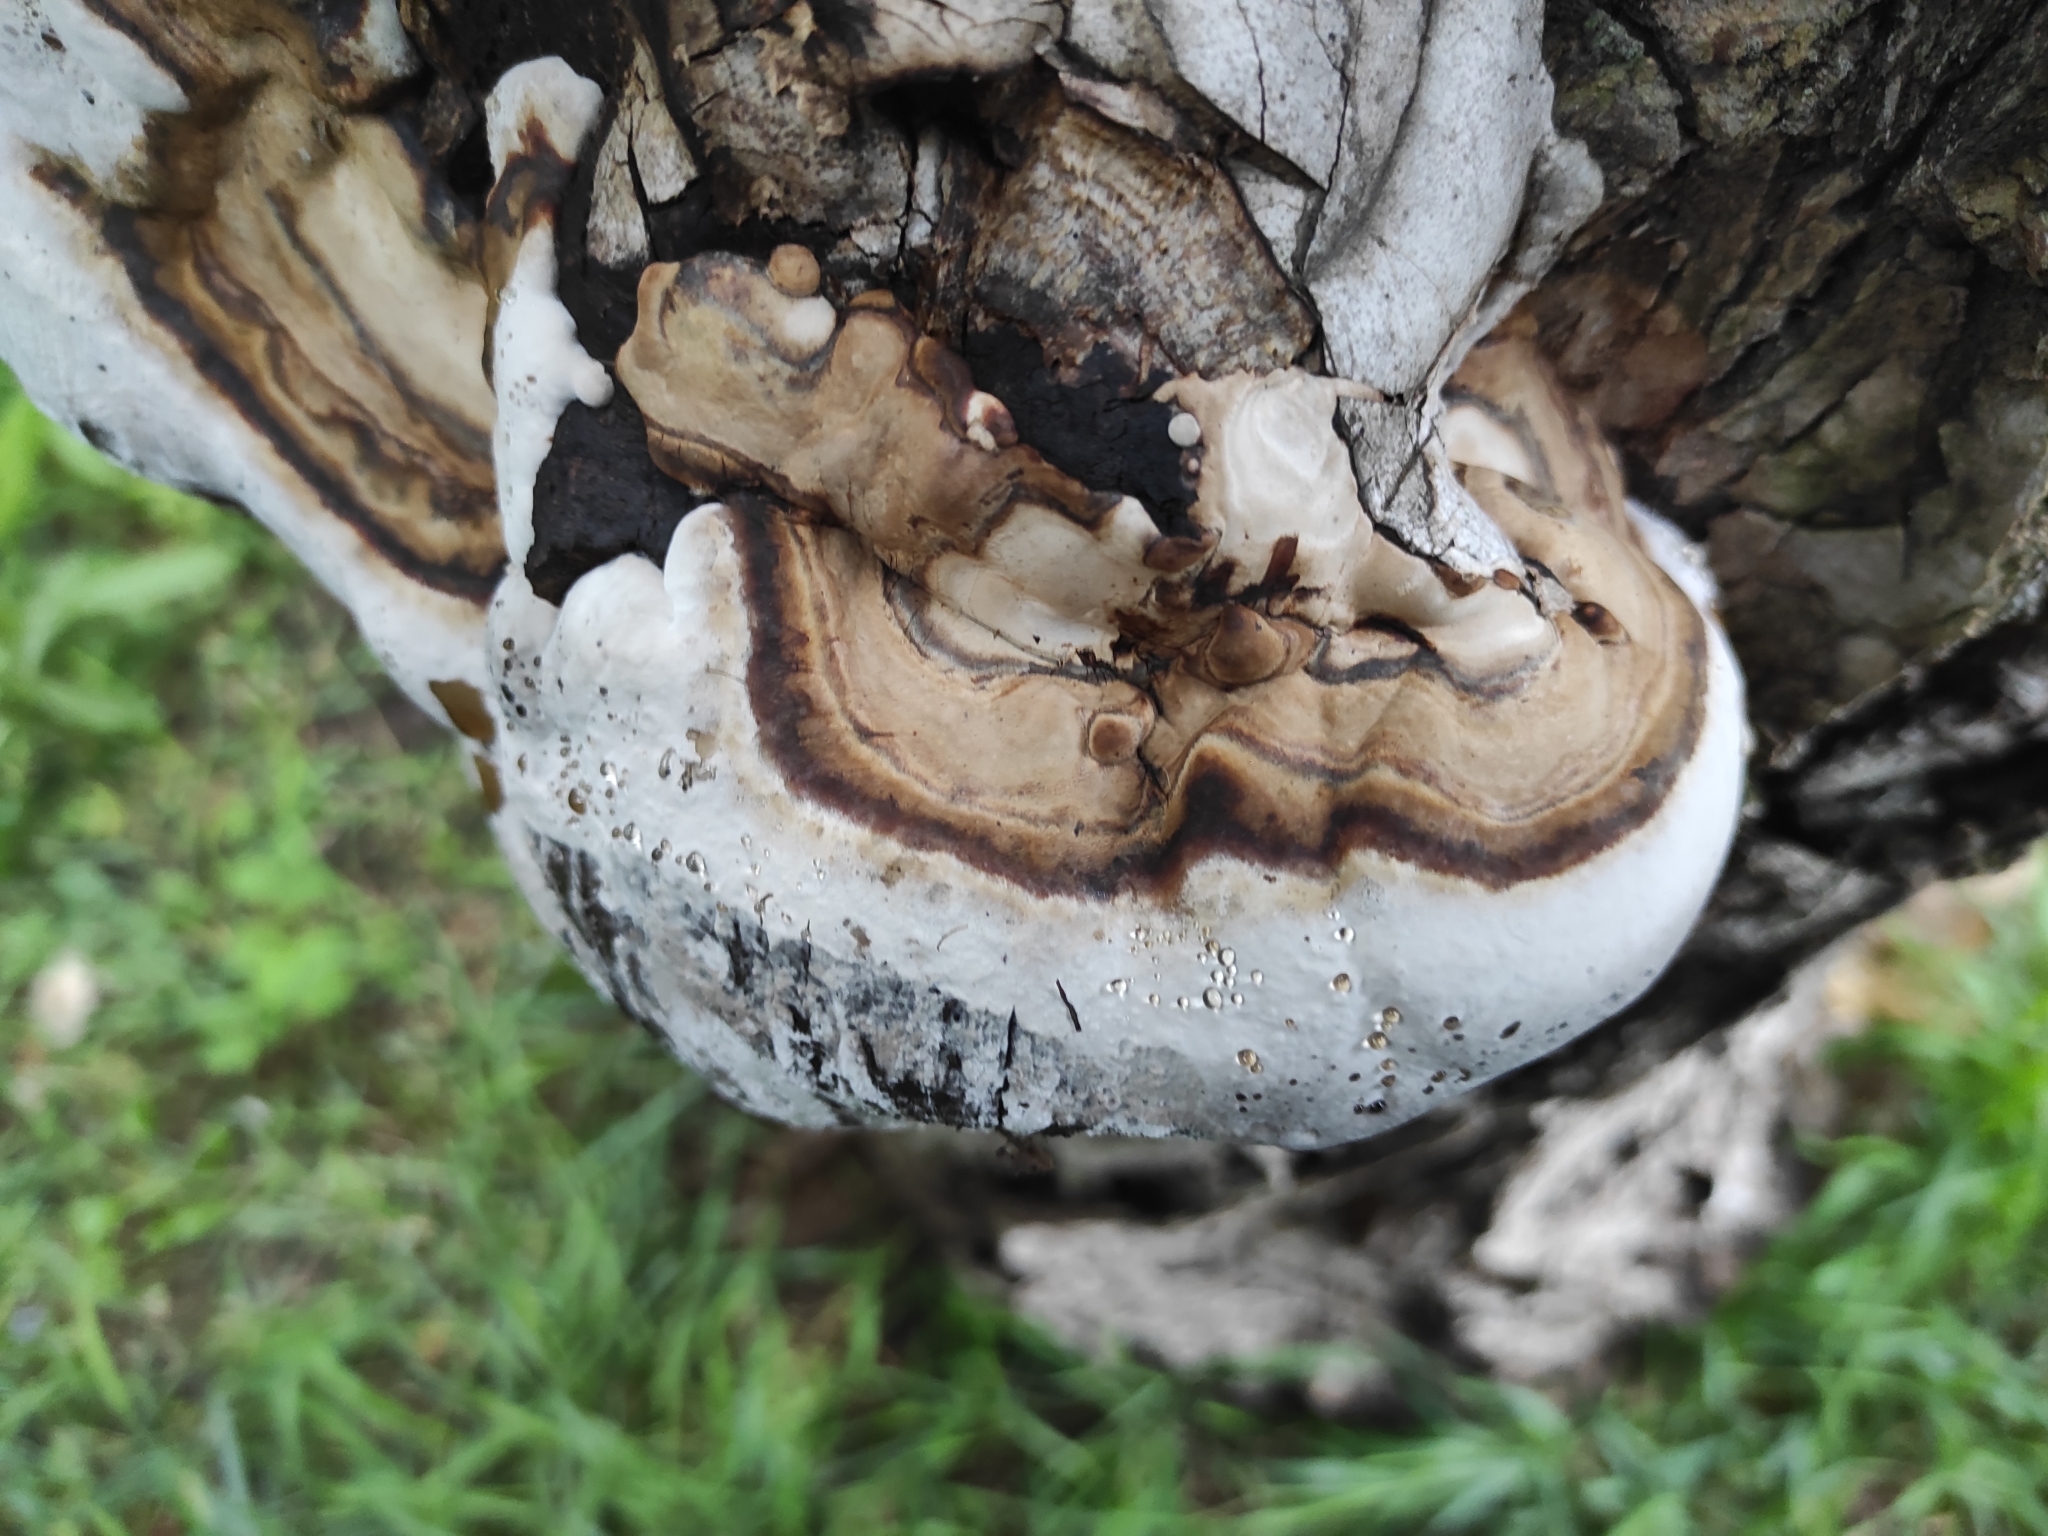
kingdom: Fungi
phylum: Basidiomycota
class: Agaricomycetes
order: Polyporales
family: Polyporaceae
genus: Fomes
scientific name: Fomes fomentarius
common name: Hoof fungus
